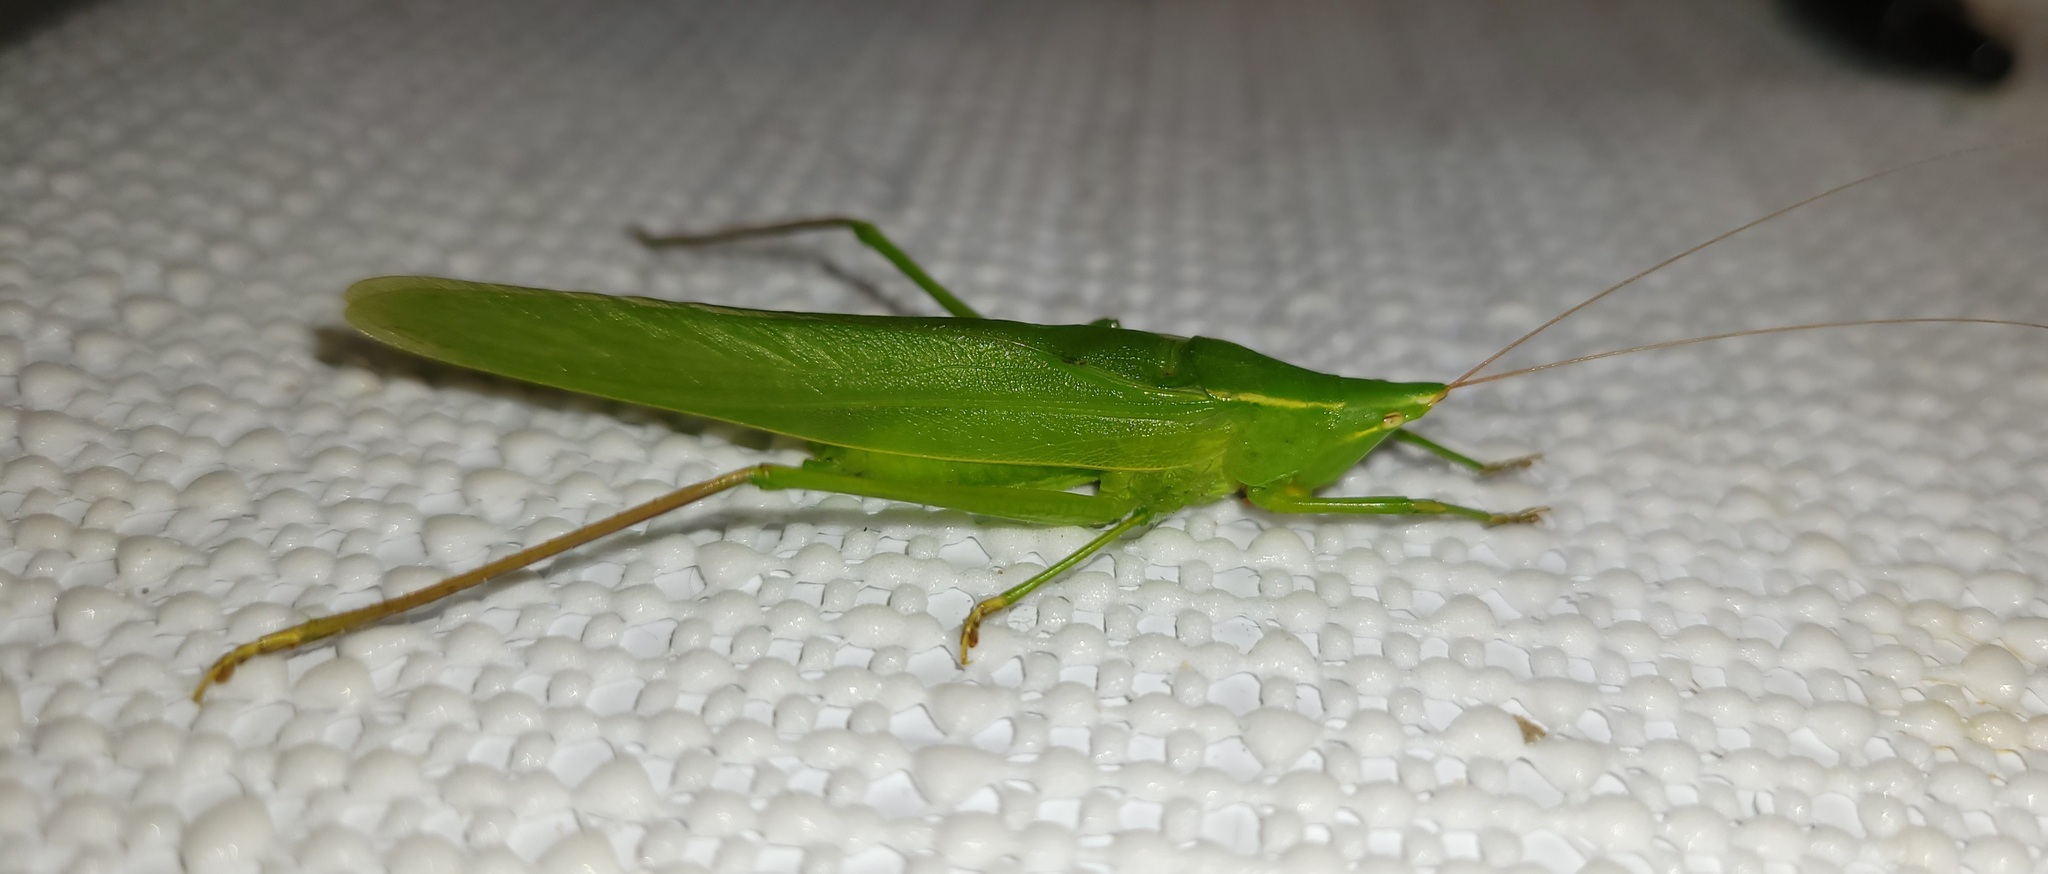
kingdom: Animalia
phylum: Arthropoda
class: Insecta
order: Orthoptera
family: Tettigoniidae
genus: Neoconocephalus
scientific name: Neoconocephalus ensiger
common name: Swordbearer
